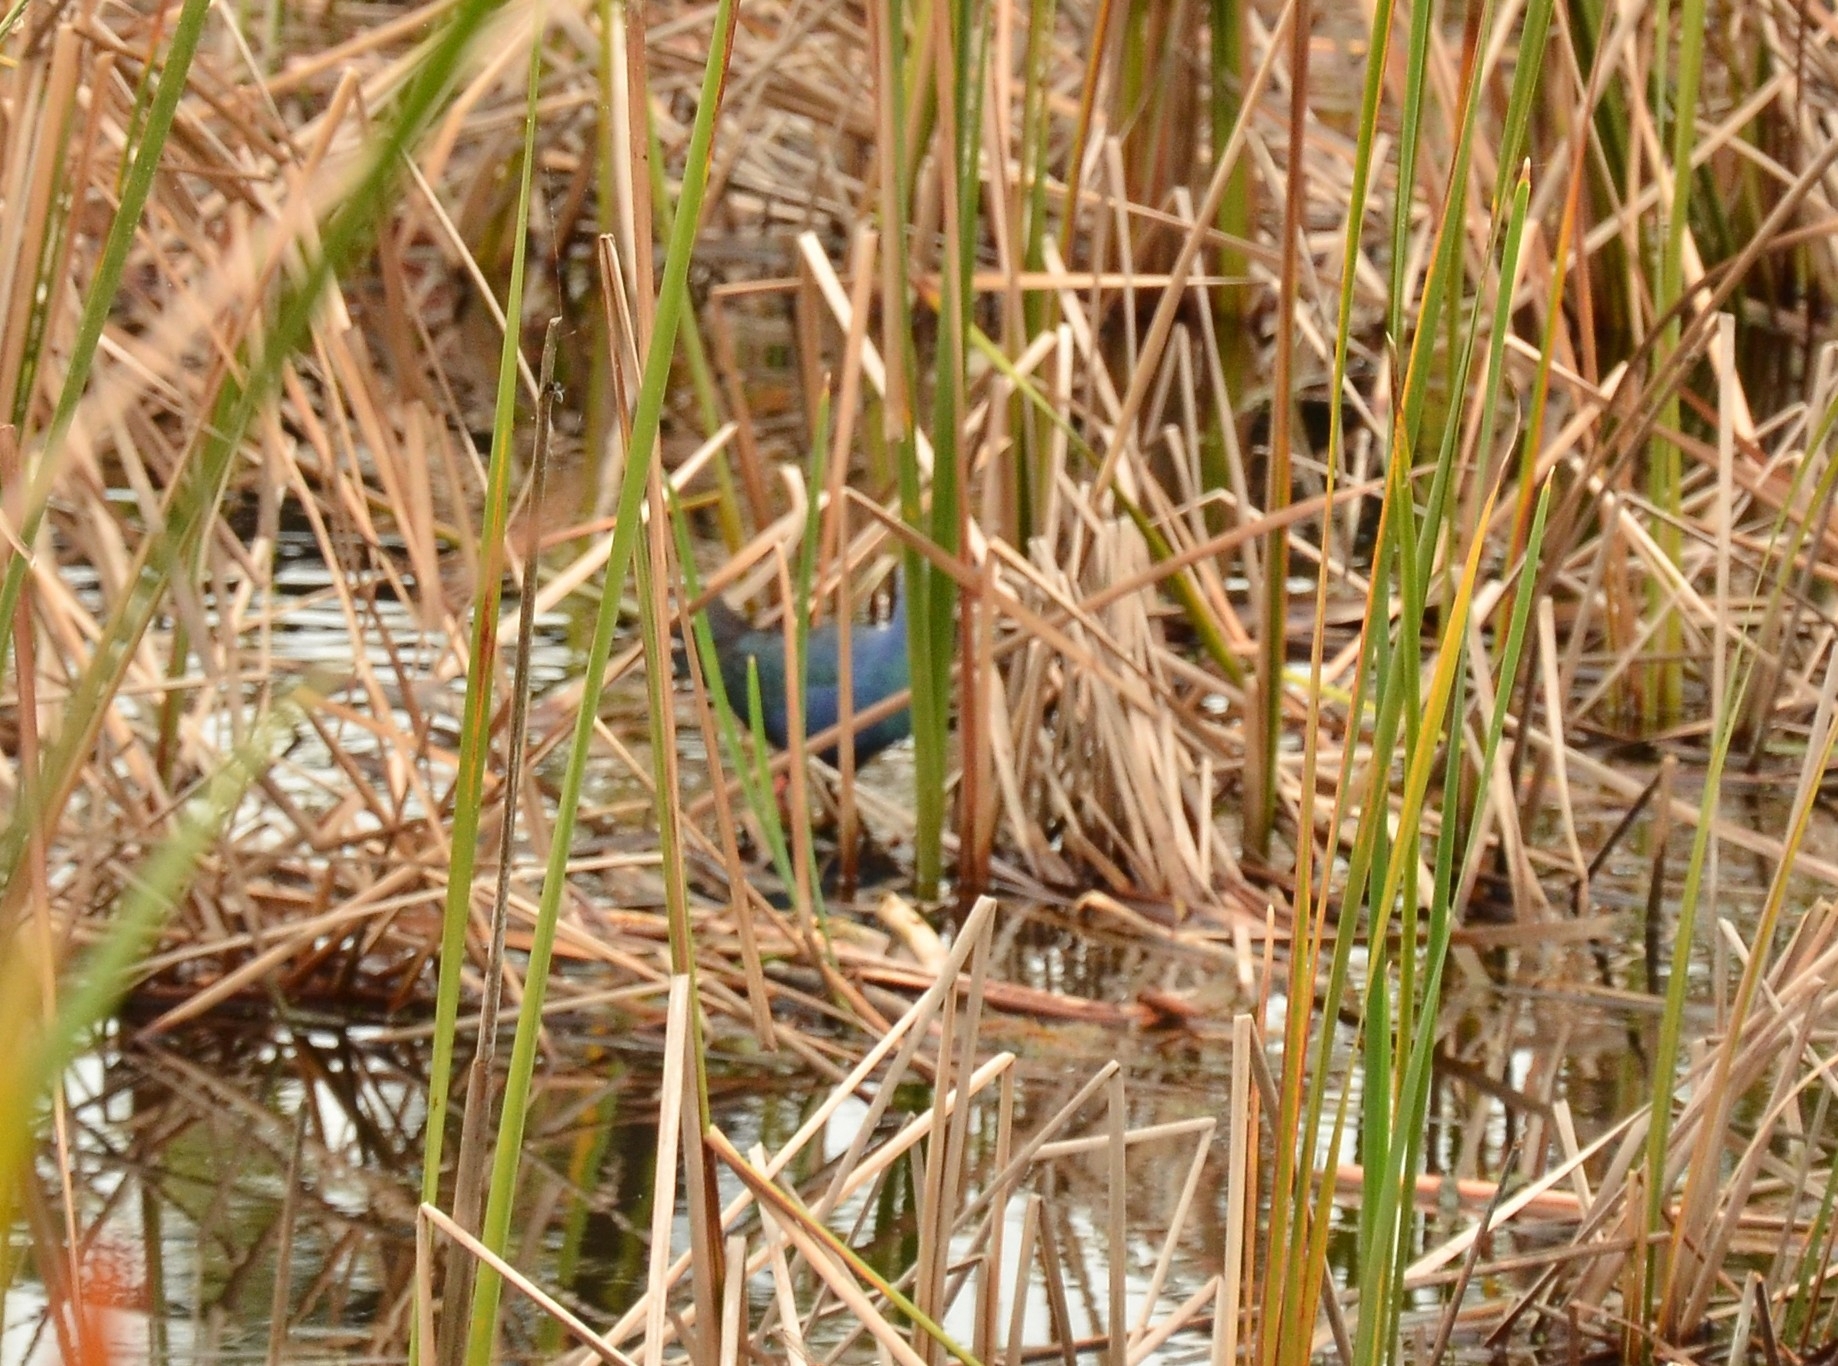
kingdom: Animalia
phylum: Chordata
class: Aves
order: Gruiformes
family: Rallidae
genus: Porphyrio
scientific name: Porphyrio porphyrio
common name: Purple swamphen
